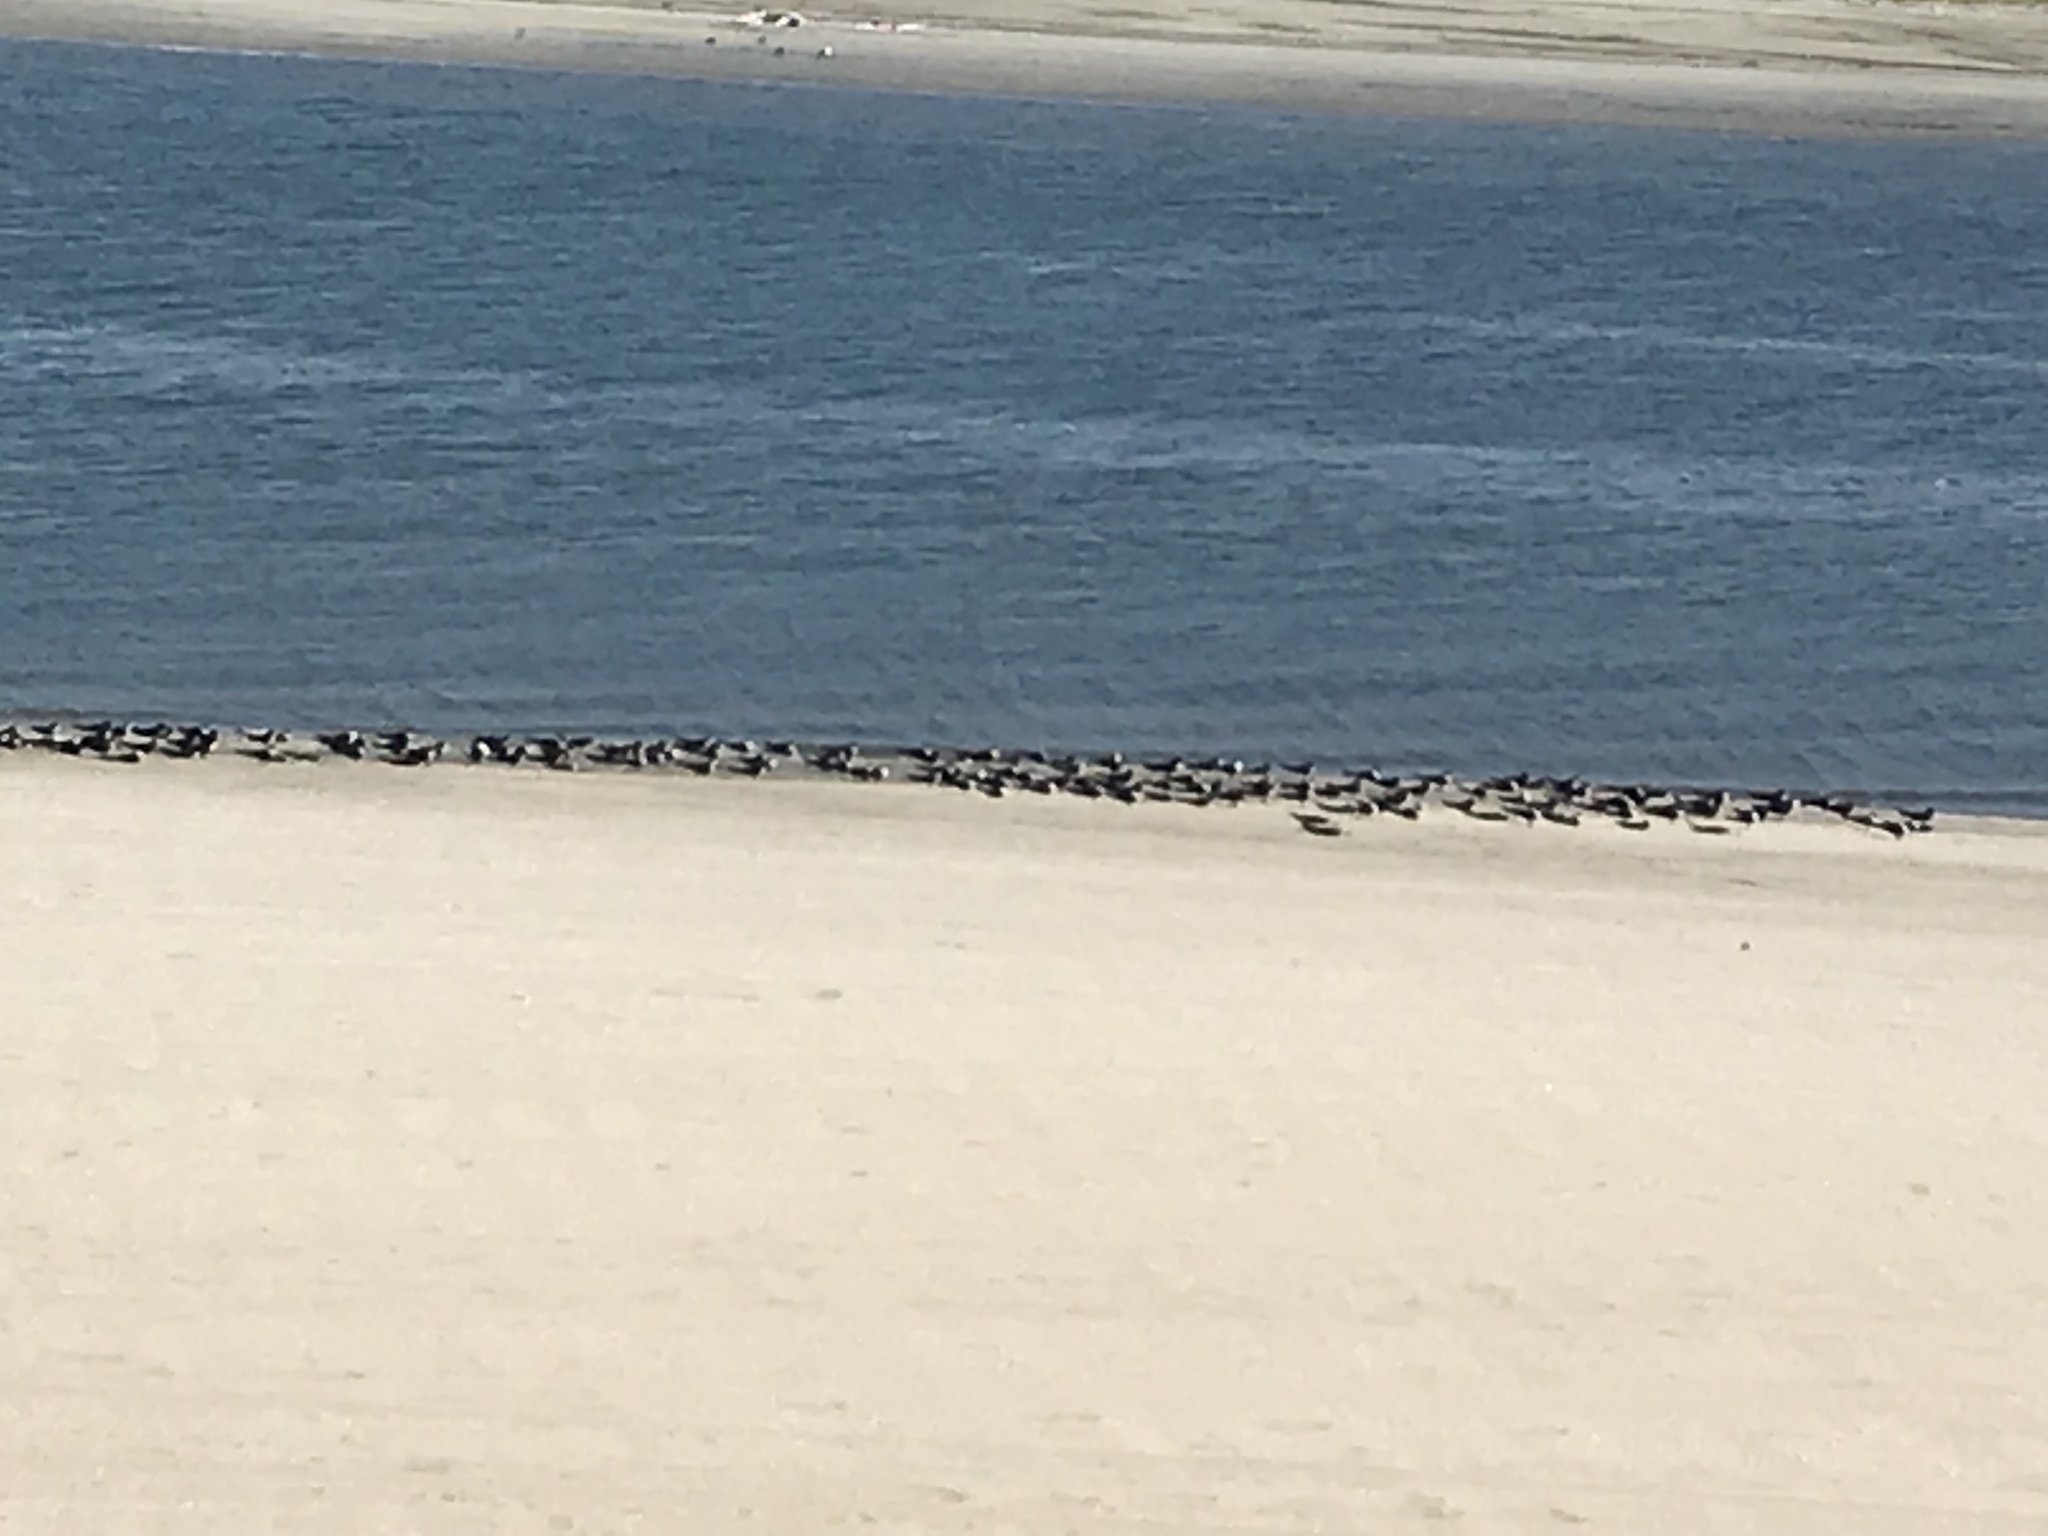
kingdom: Animalia
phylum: Chordata
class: Aves
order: Charadriiformes
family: Laridae
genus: Rynchops
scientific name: Rynchops niger
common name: Black skimmer
